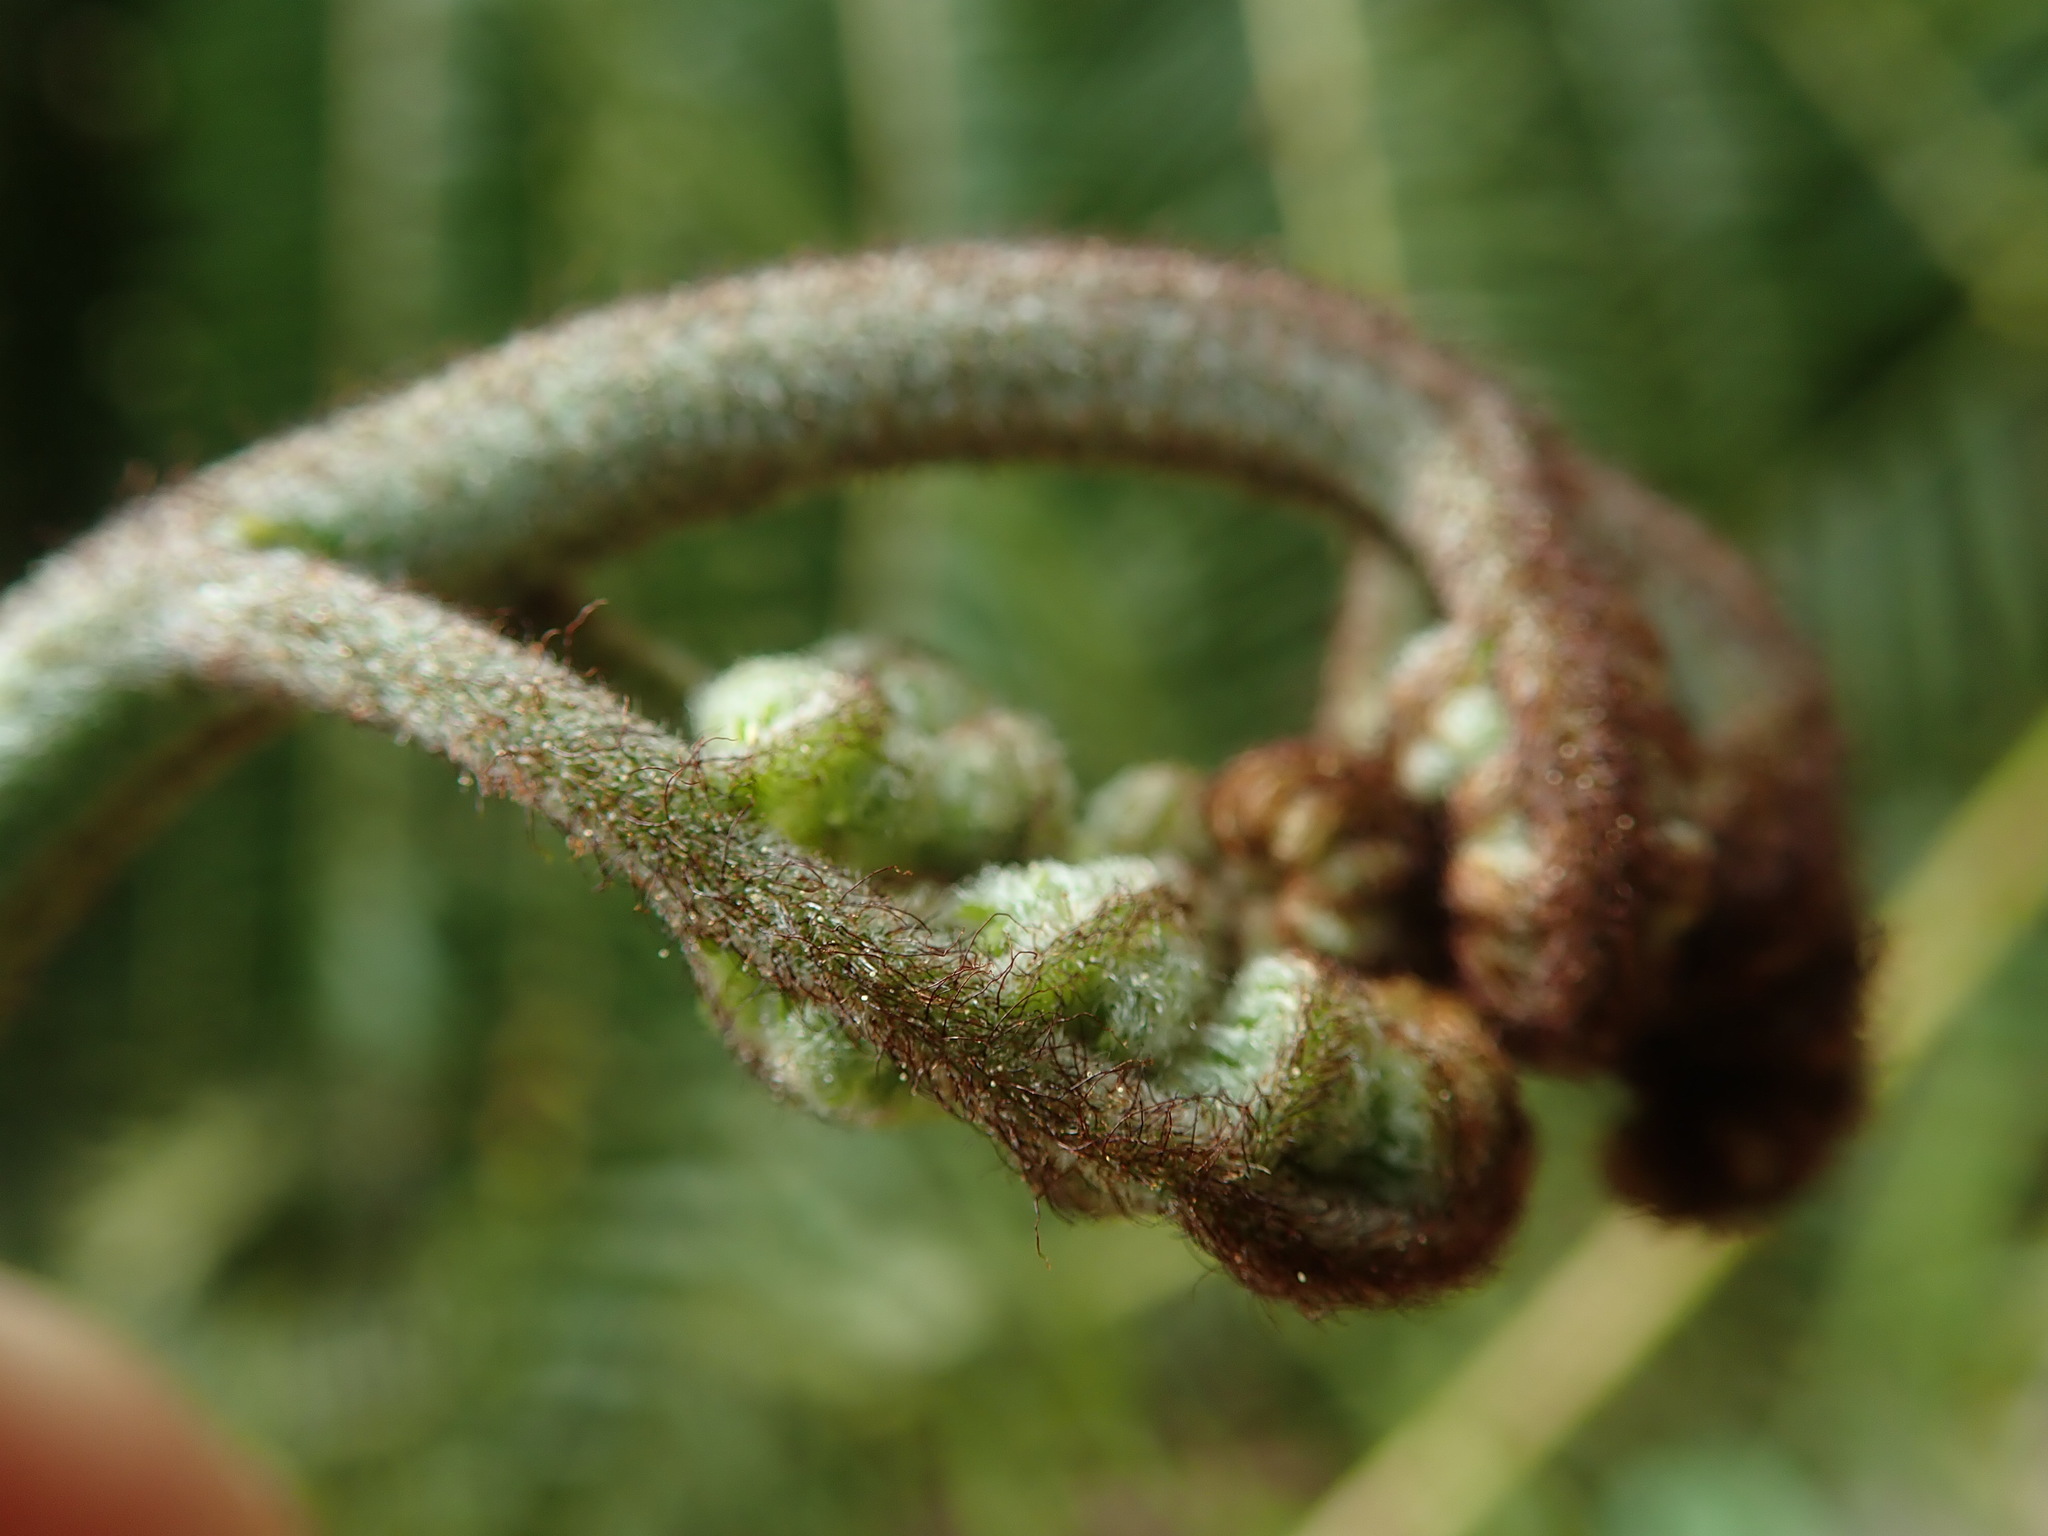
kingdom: Plantae
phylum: Tracheophyta
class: Polypodiopsida
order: Polypodiales
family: Dennstaedtiaceae
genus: Pteridium
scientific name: Pteridium aquilinum
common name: Bracken
